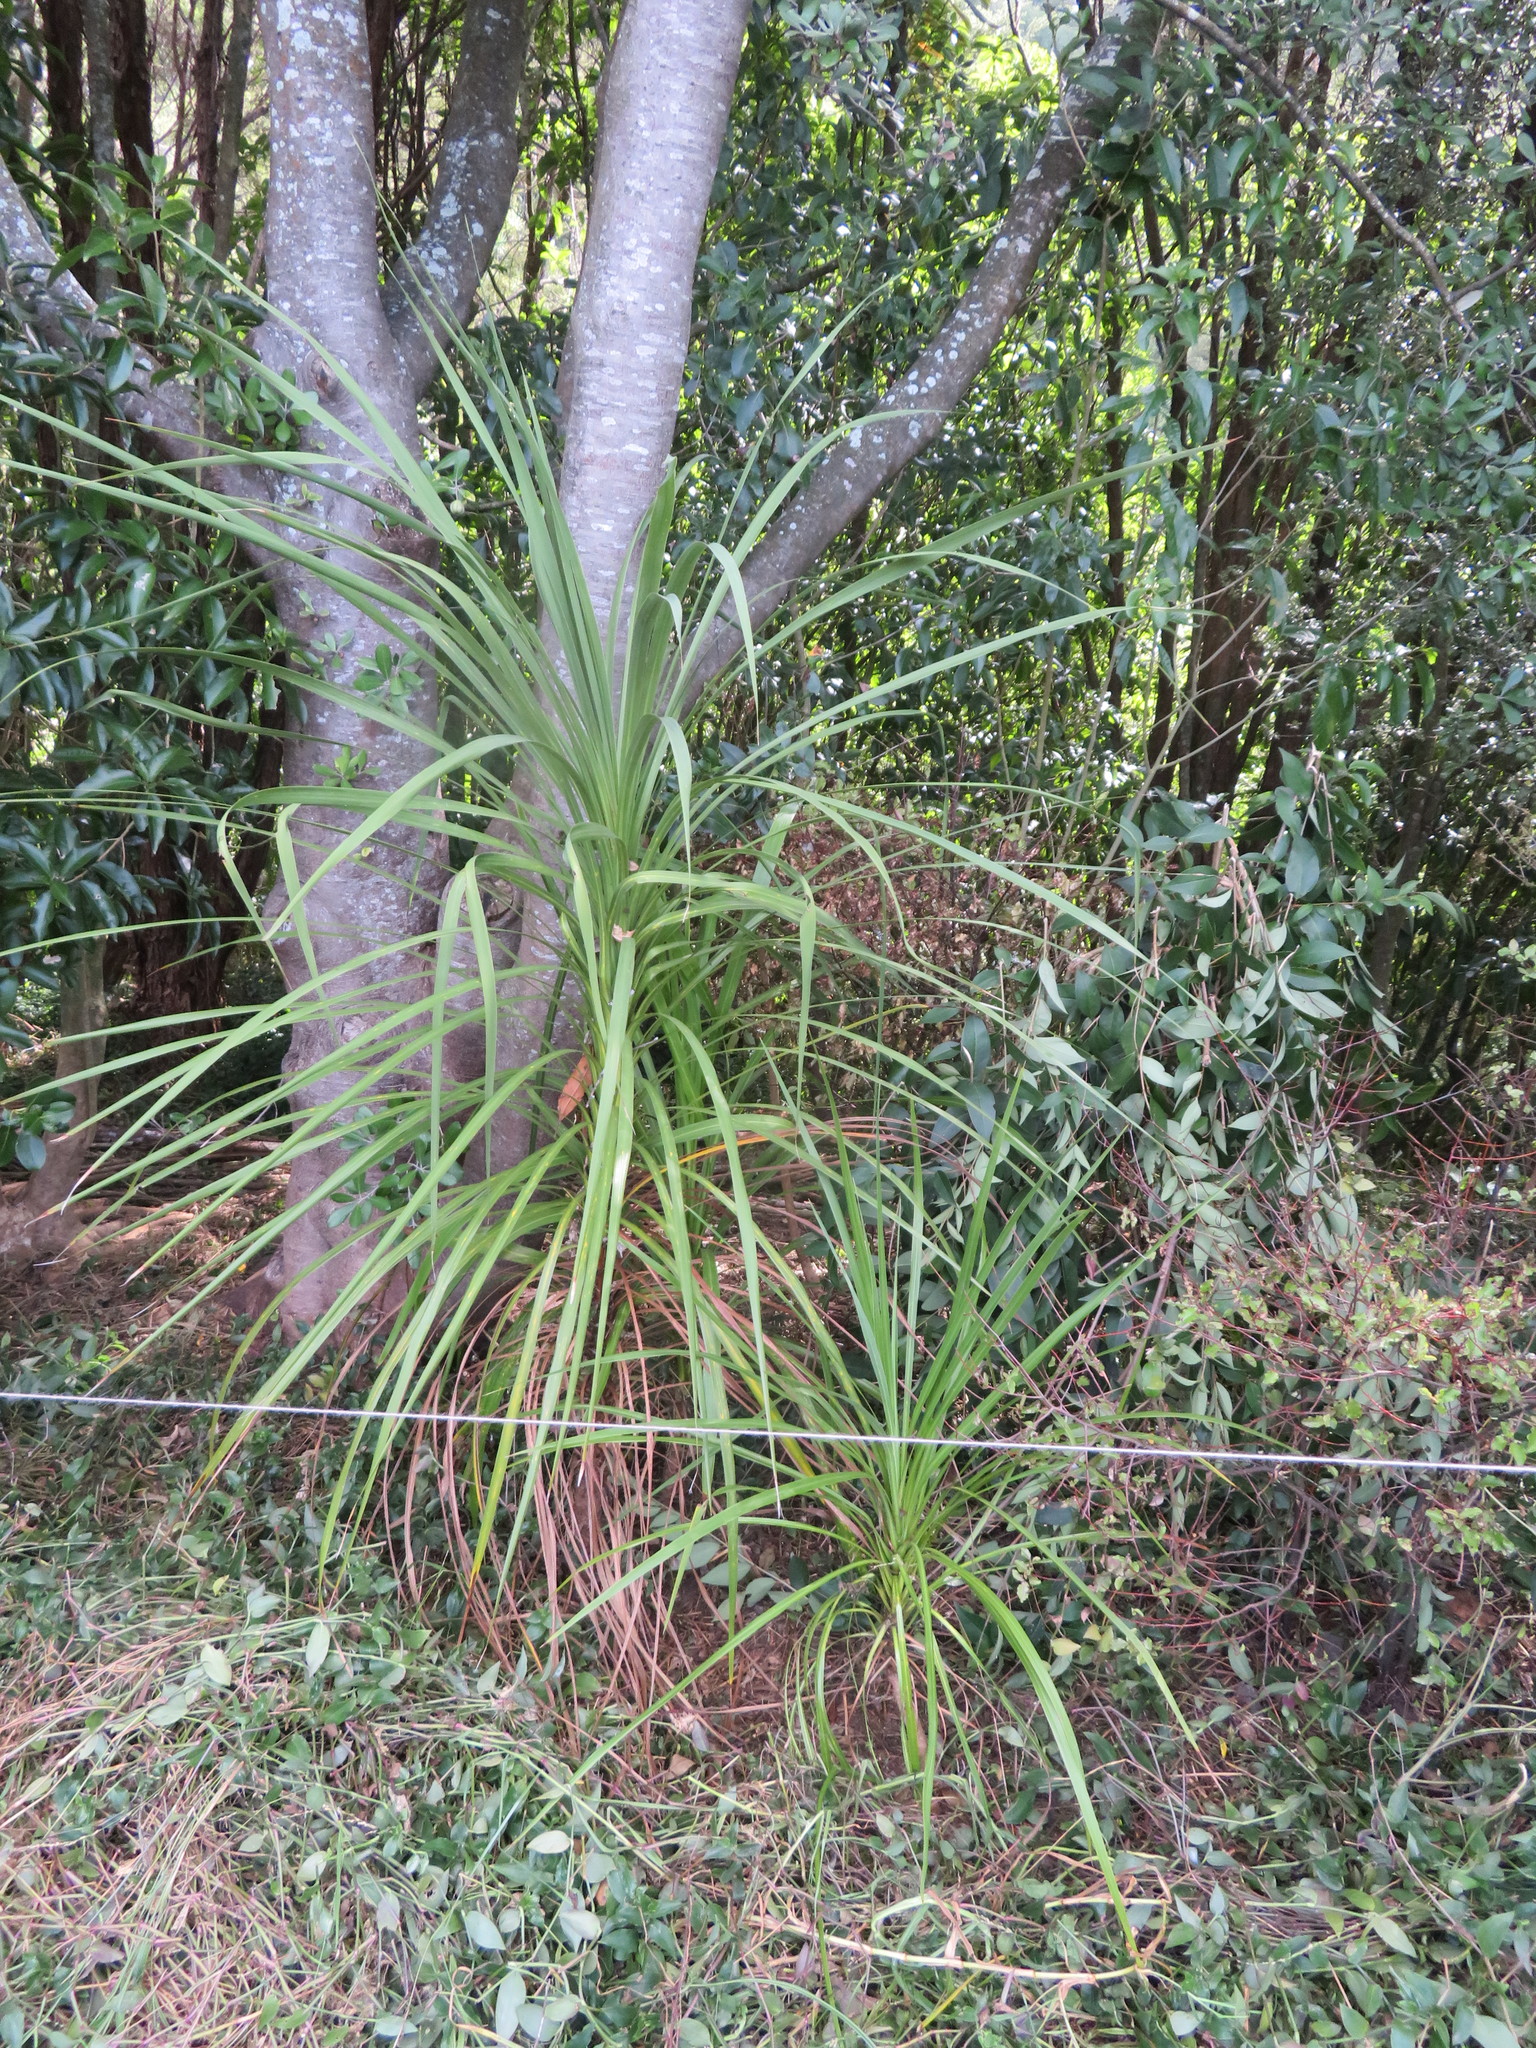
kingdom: Plantae
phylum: Tracheophyta
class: Liliopsida
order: Asparagales
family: Asparagaceae
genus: Cordyline
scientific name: Cordyline australis
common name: Cabbage-palm
